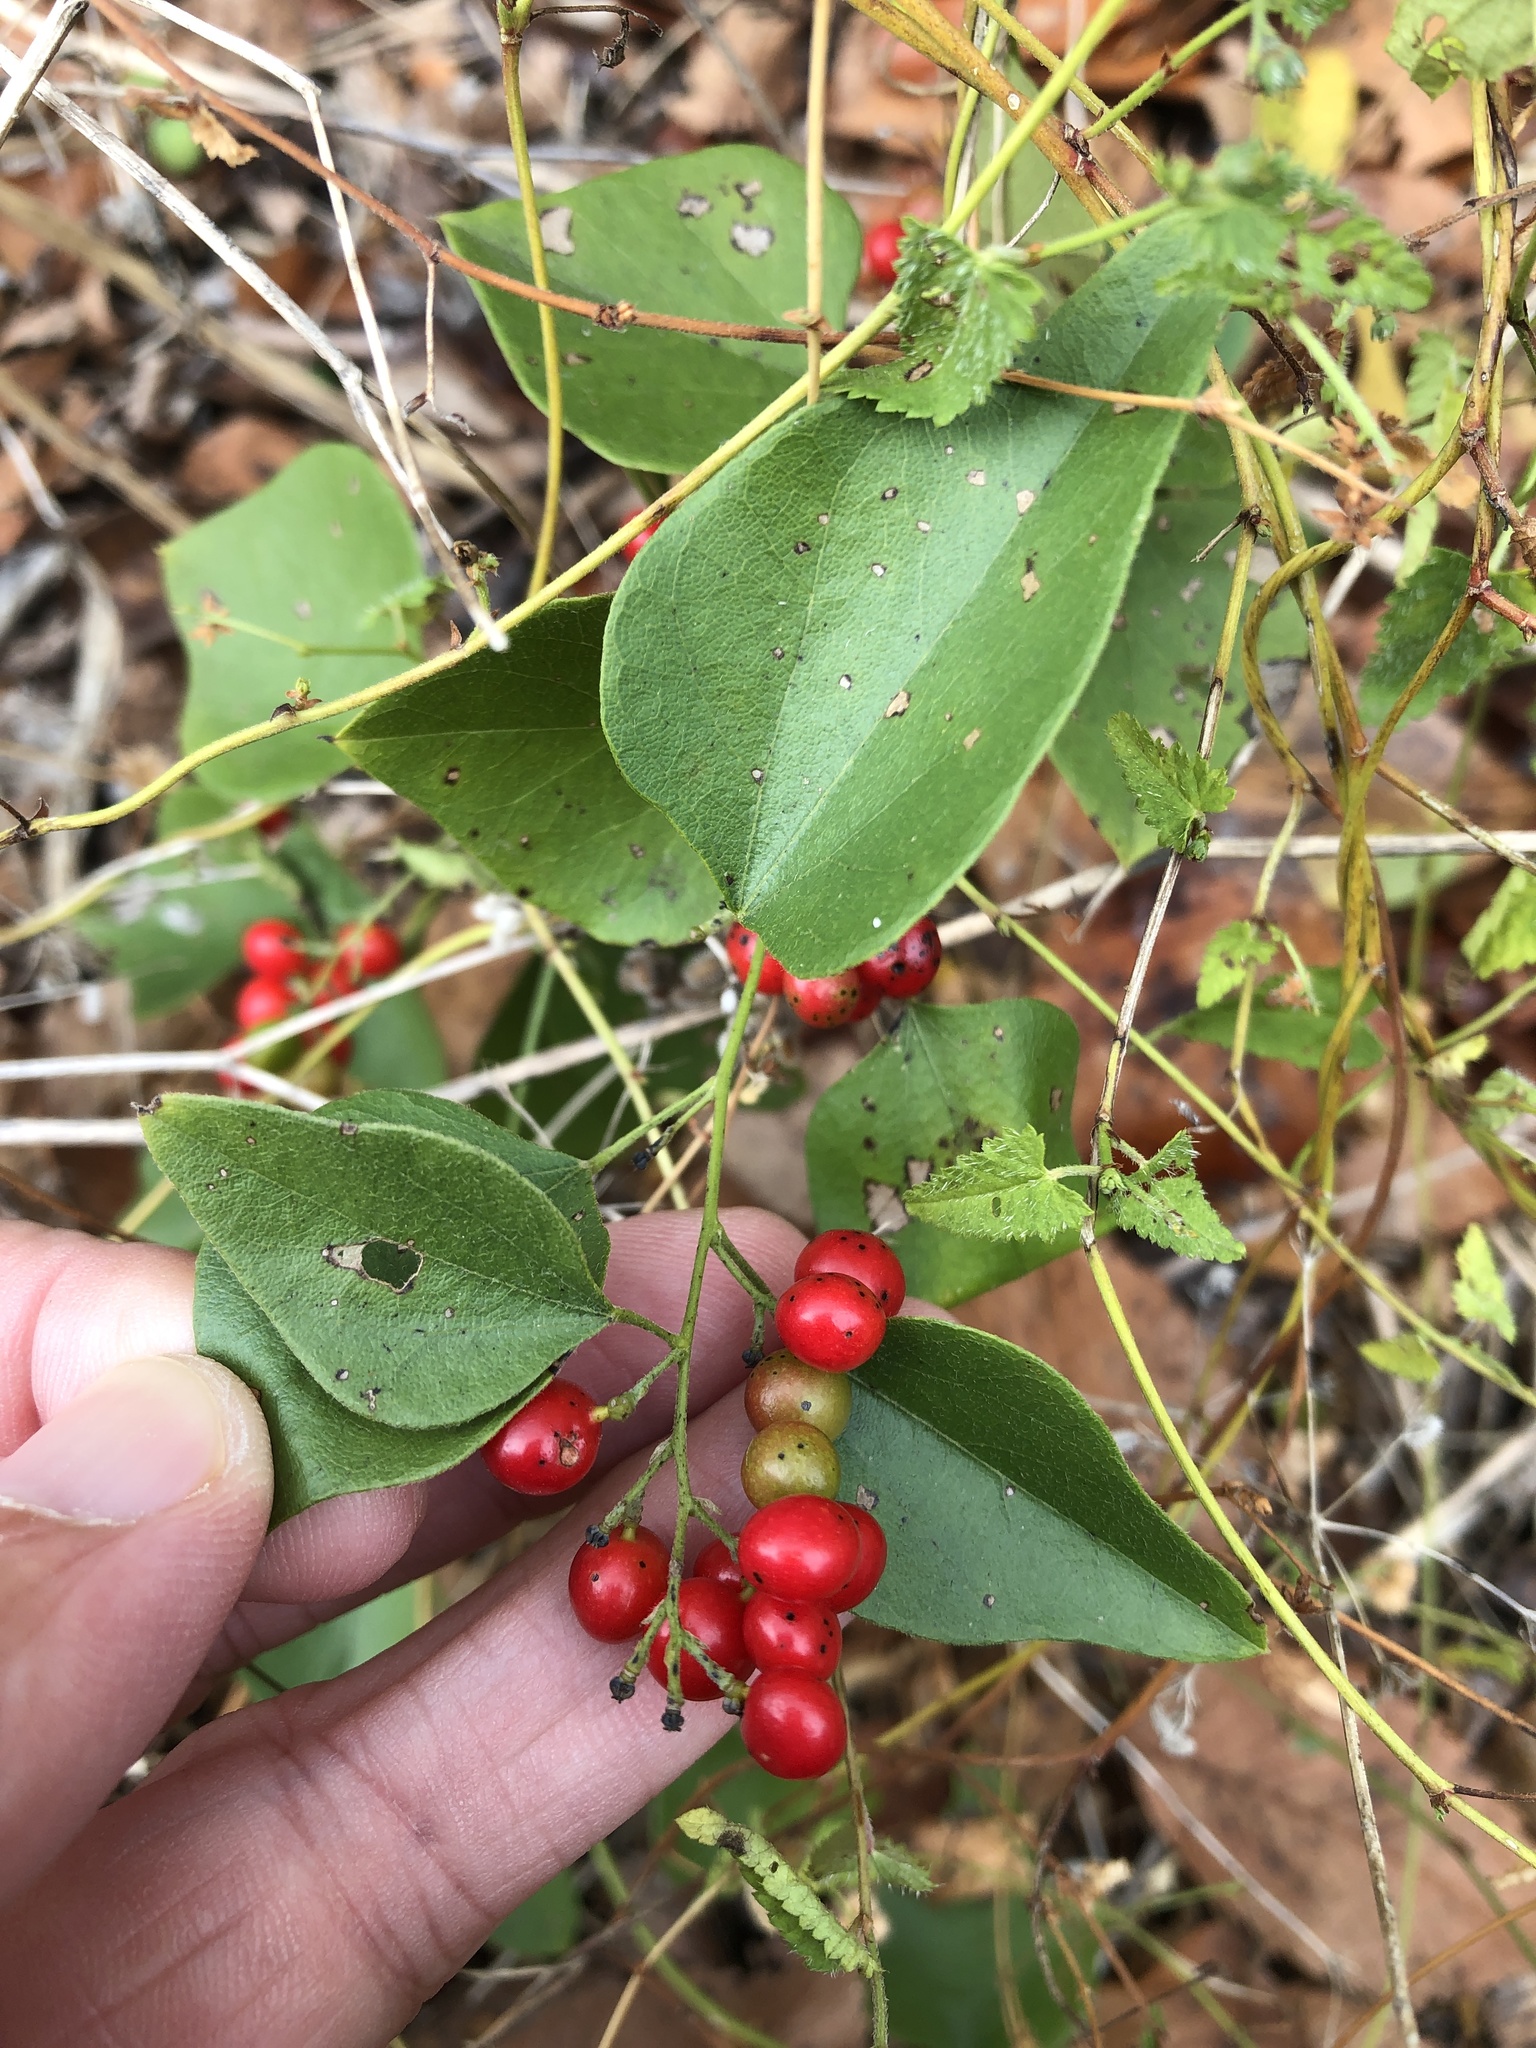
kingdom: Plantae
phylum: Tracheophyta
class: Magnoliopsida
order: Ranunculales
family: Menispermaceae
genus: Cocculus
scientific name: Cocculus carolinus
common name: Carolina moonseed
